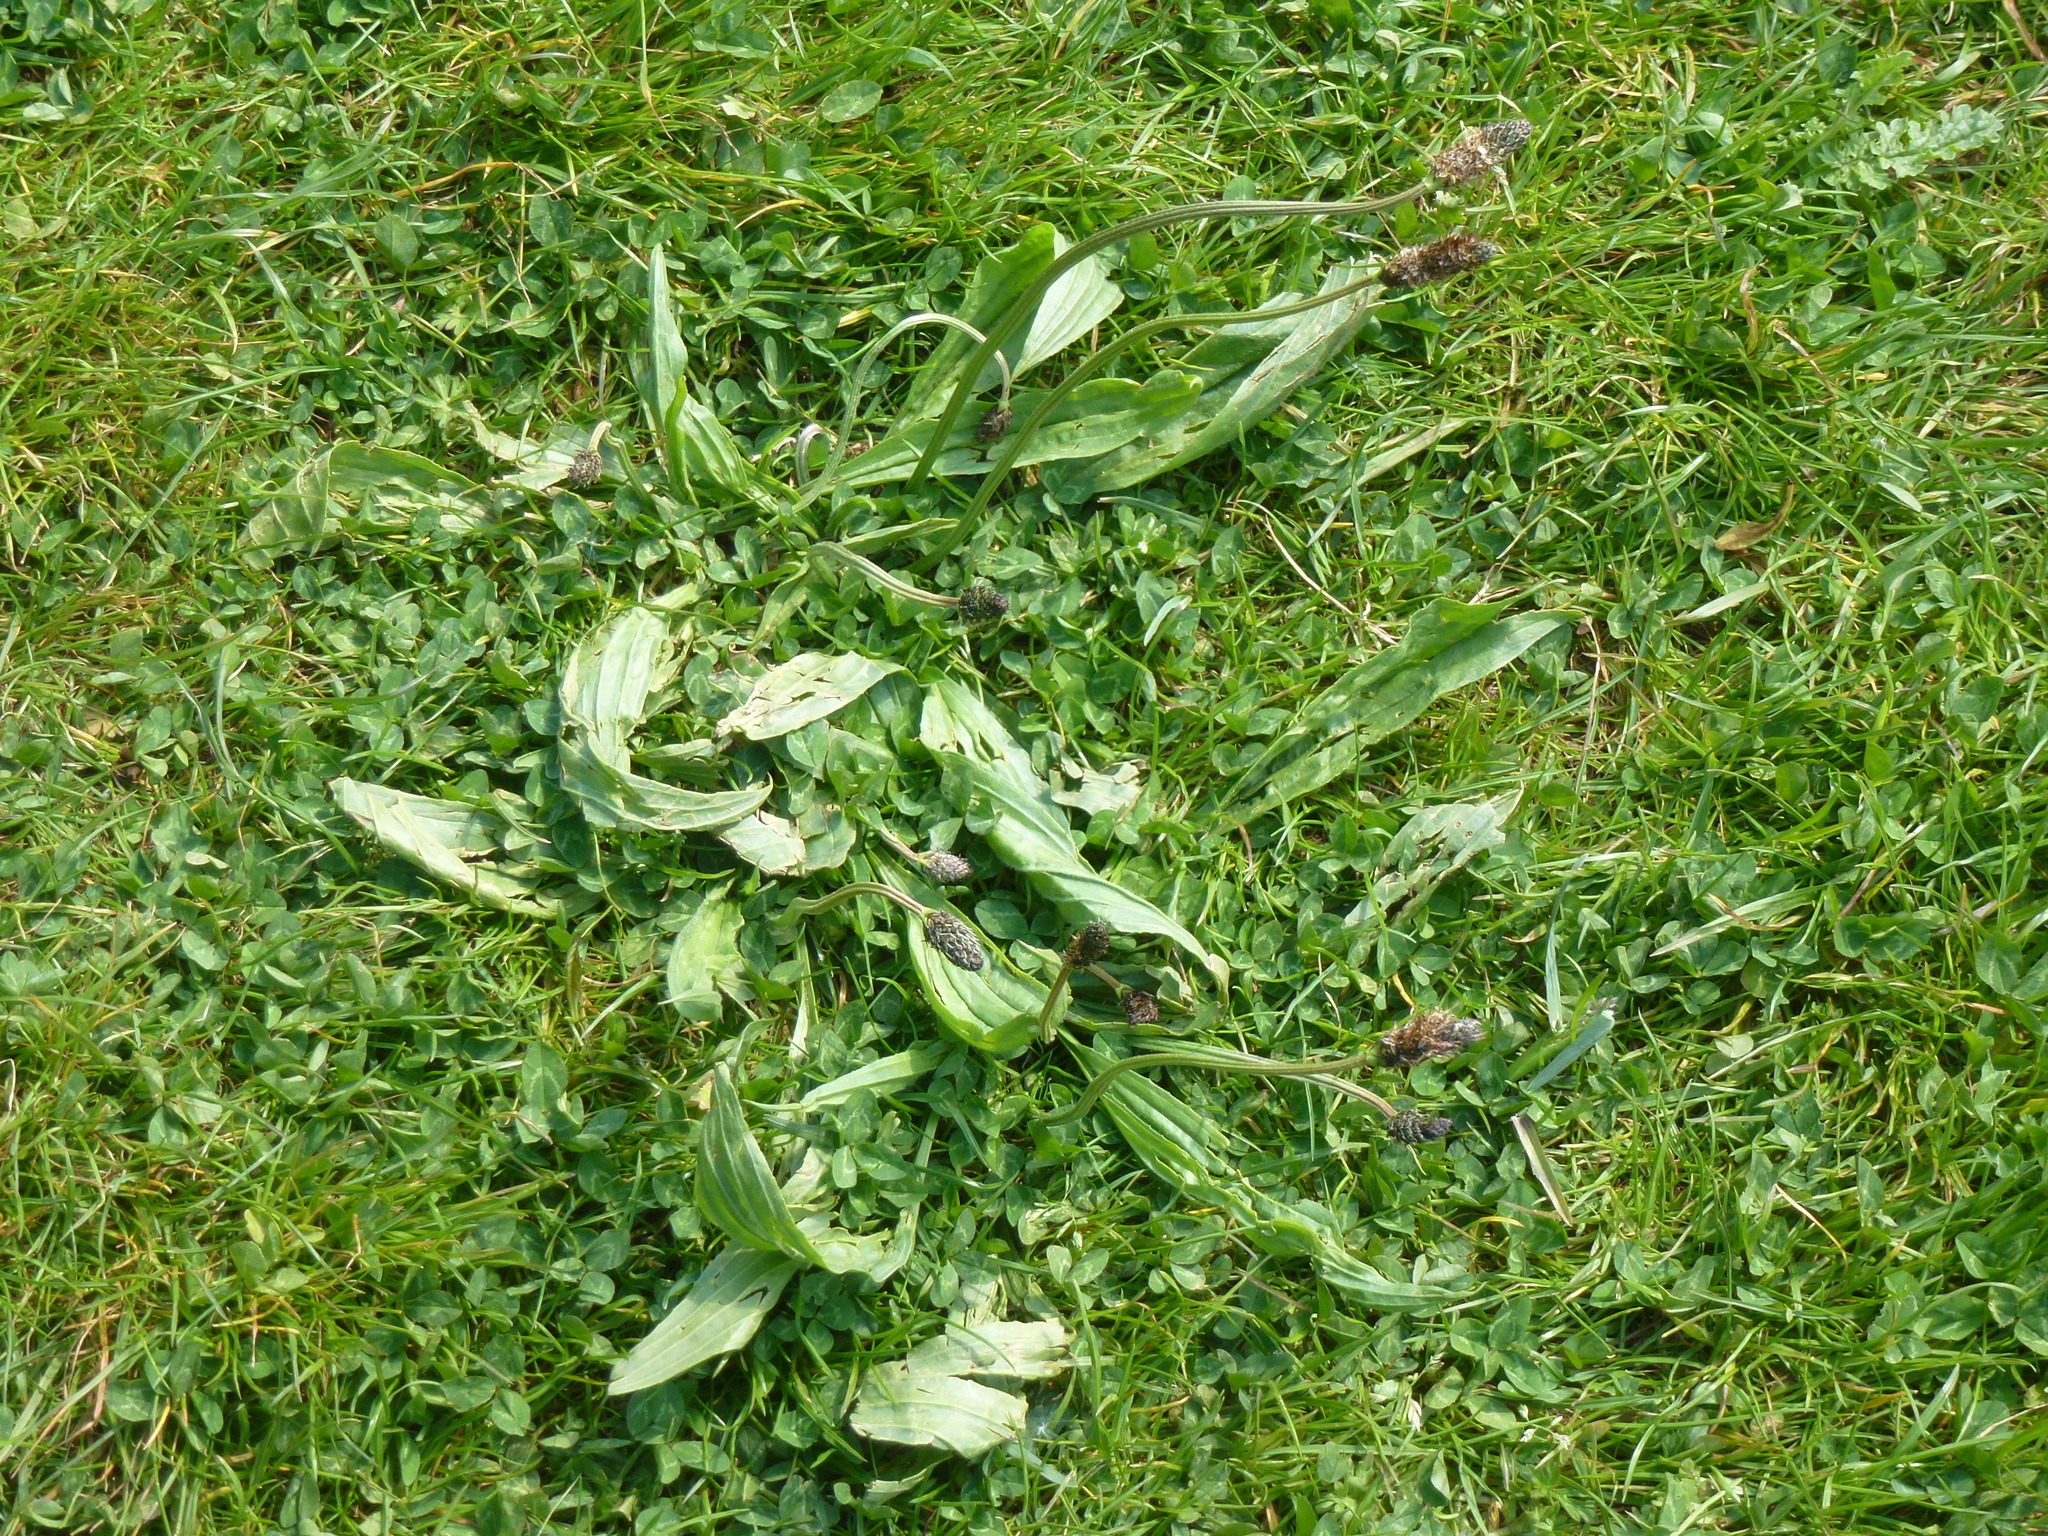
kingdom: Plantae
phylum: Tracheophyta
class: Magnoliopsida
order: Lamiales
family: Plantaginaceae
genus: Plantago
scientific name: Plantago lanceolata
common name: Ribwort plantain
